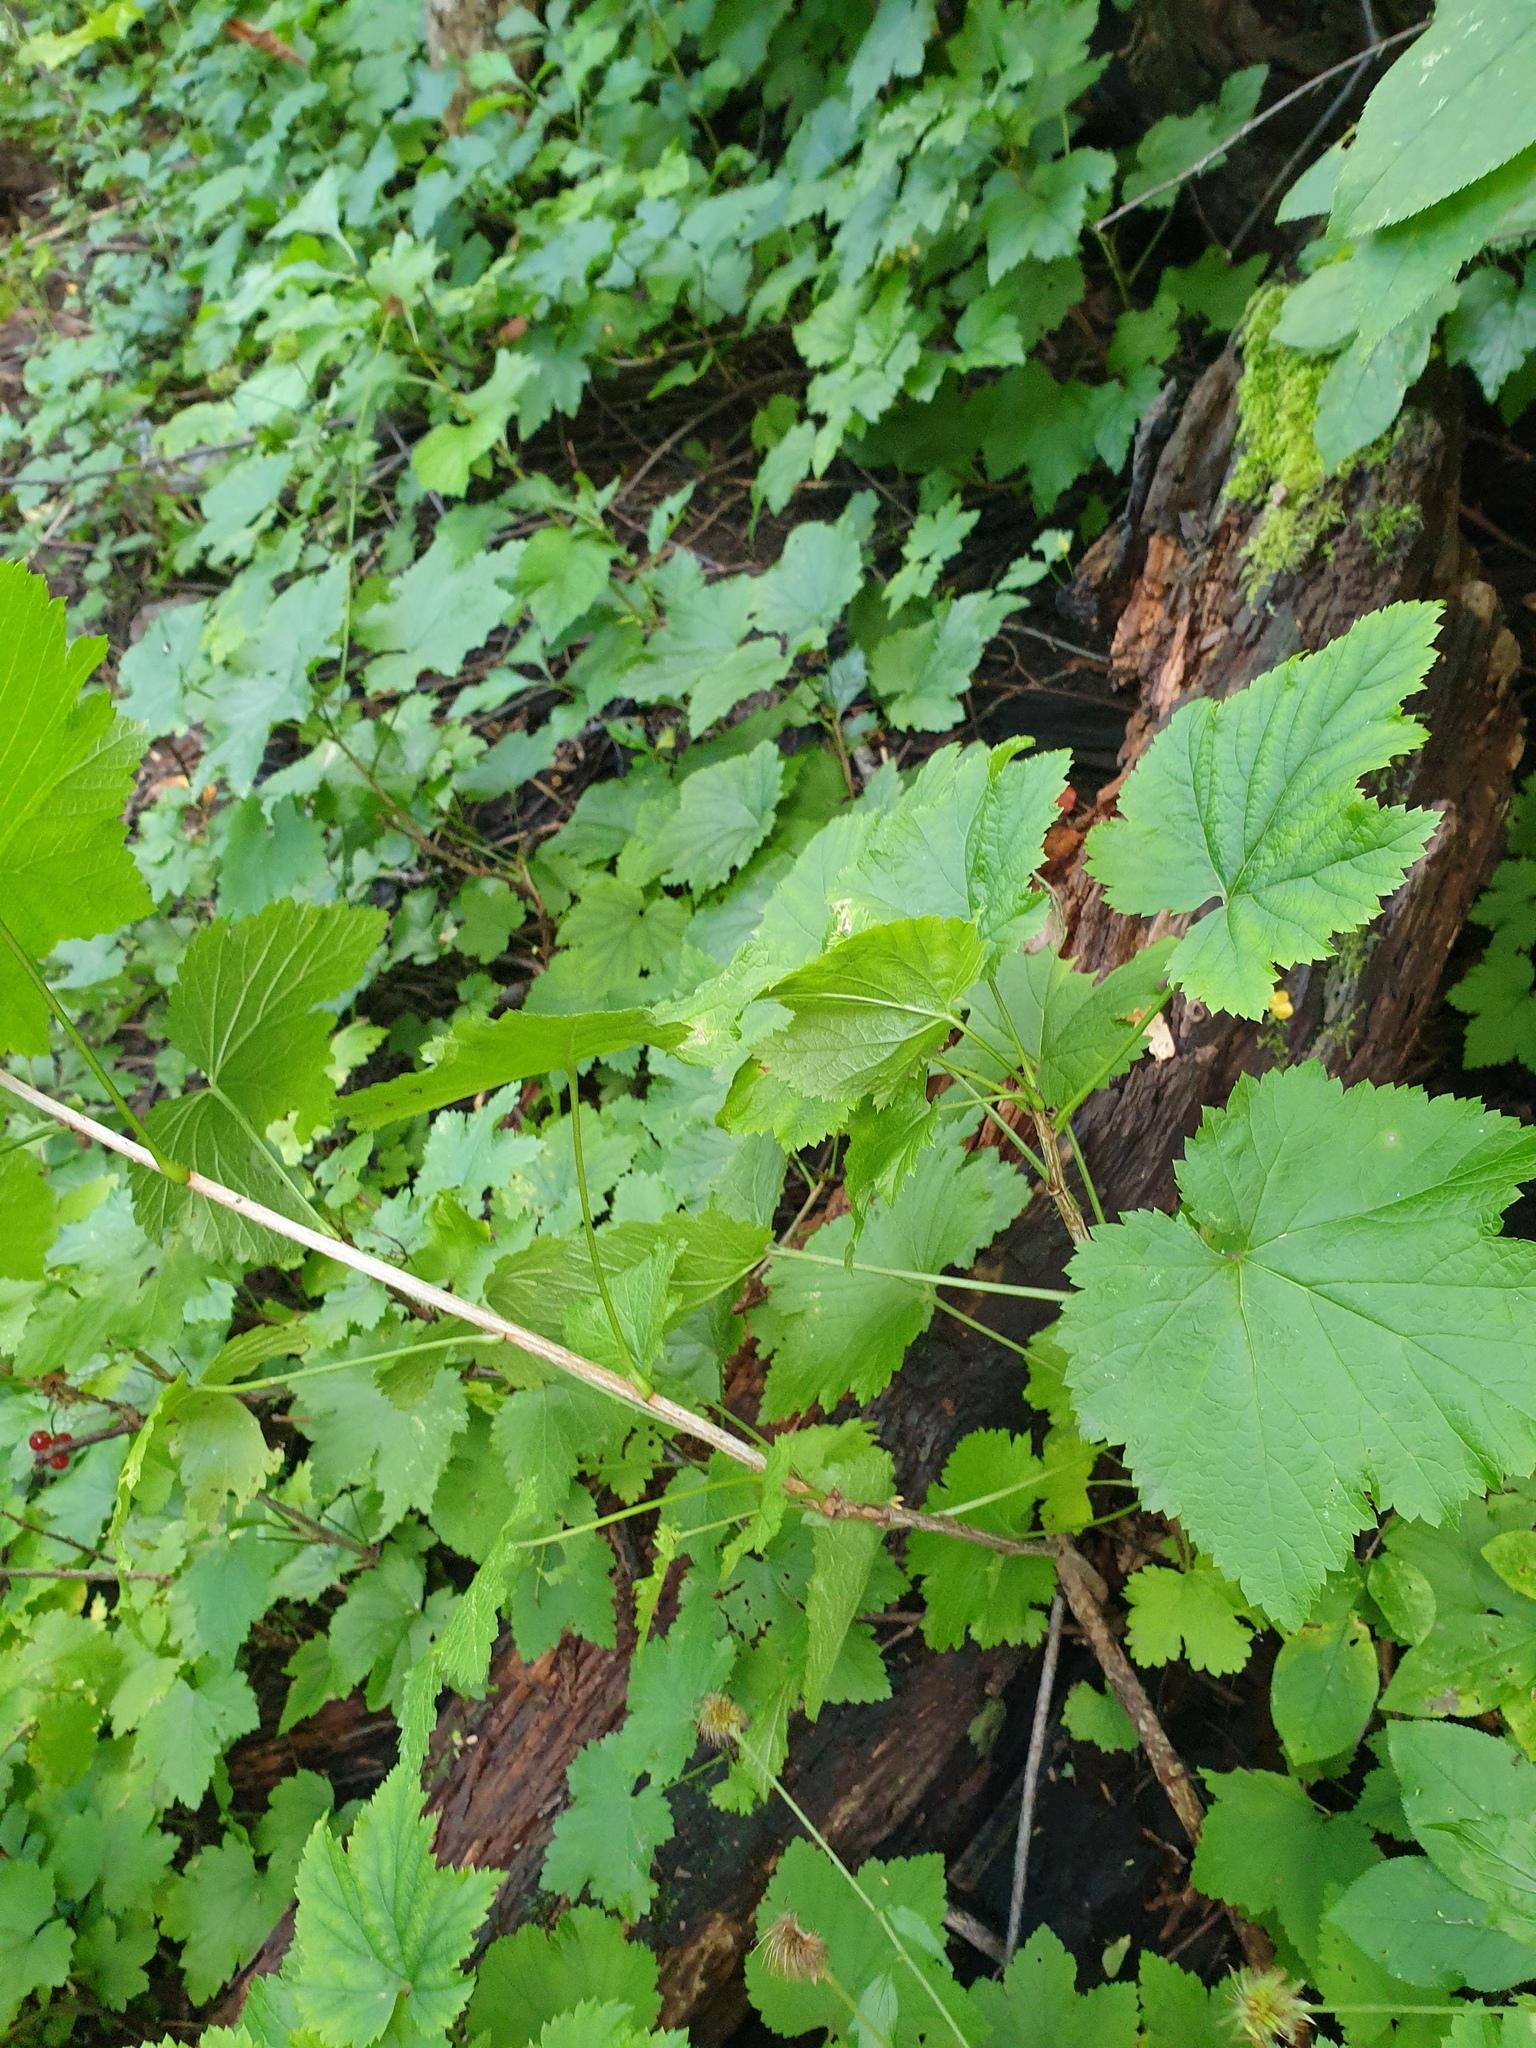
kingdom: Plantae
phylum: Tracheophyta
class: Magnoliopsida
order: Saxifragales
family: Grossulariaceae
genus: Ribes
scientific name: Ribes rubrum
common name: Red currant
